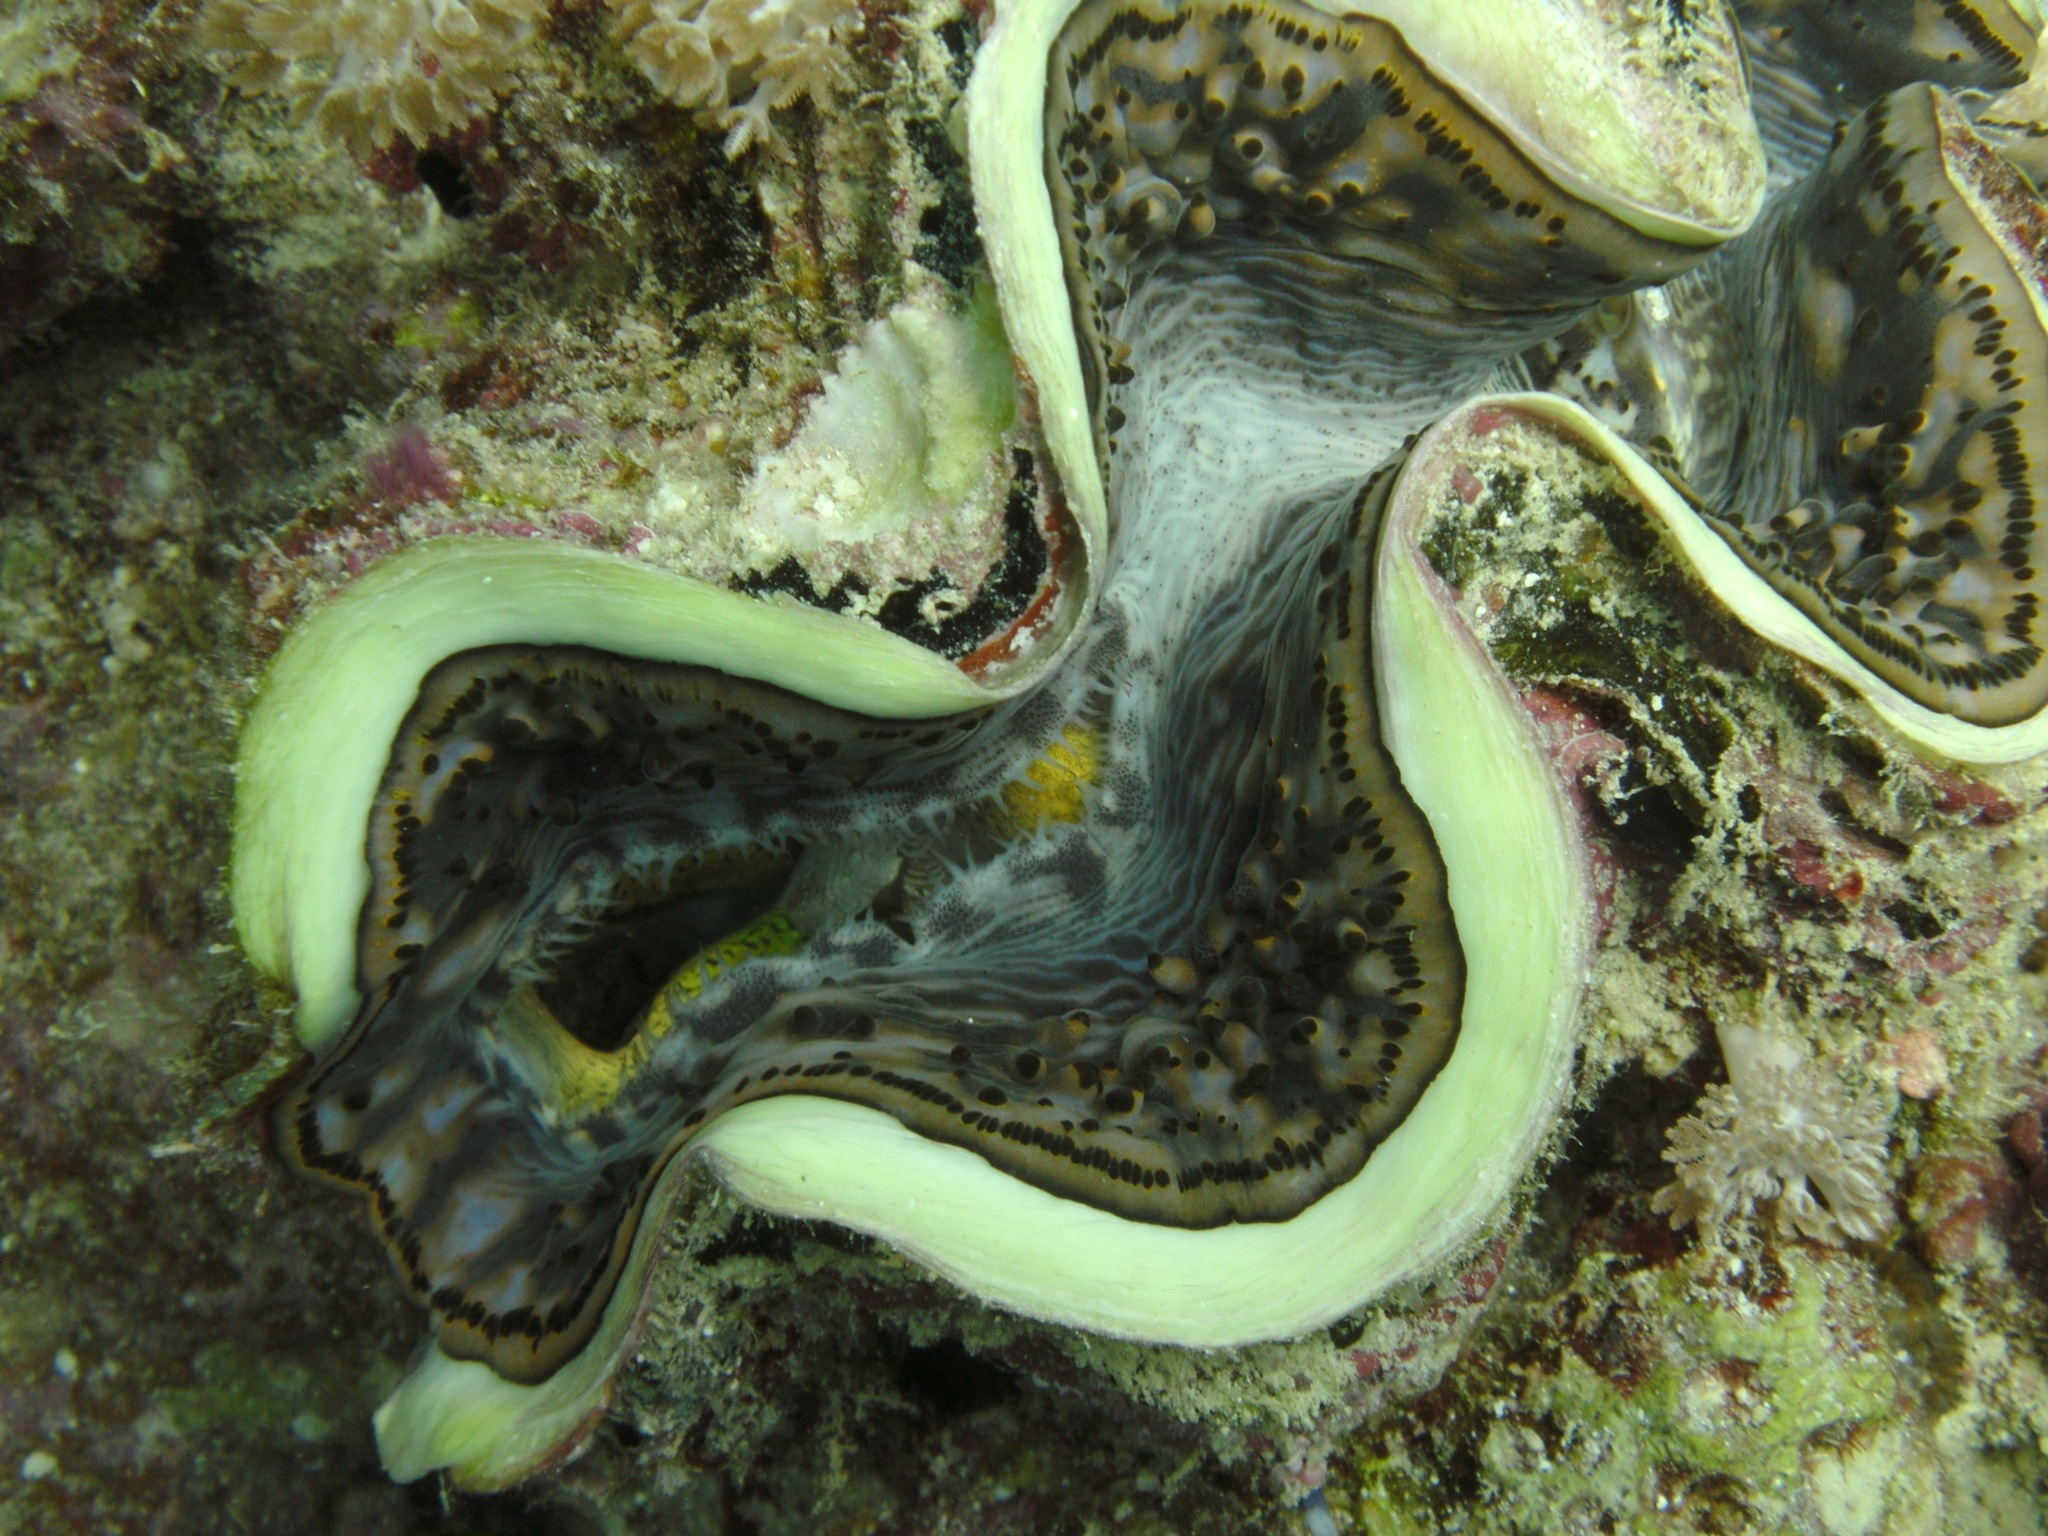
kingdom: Animalia
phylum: Mollusca
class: Bivalvia
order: Cardiida
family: Cardiidae
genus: Tridacna
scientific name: Tridacna maxima
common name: Small giant clam
